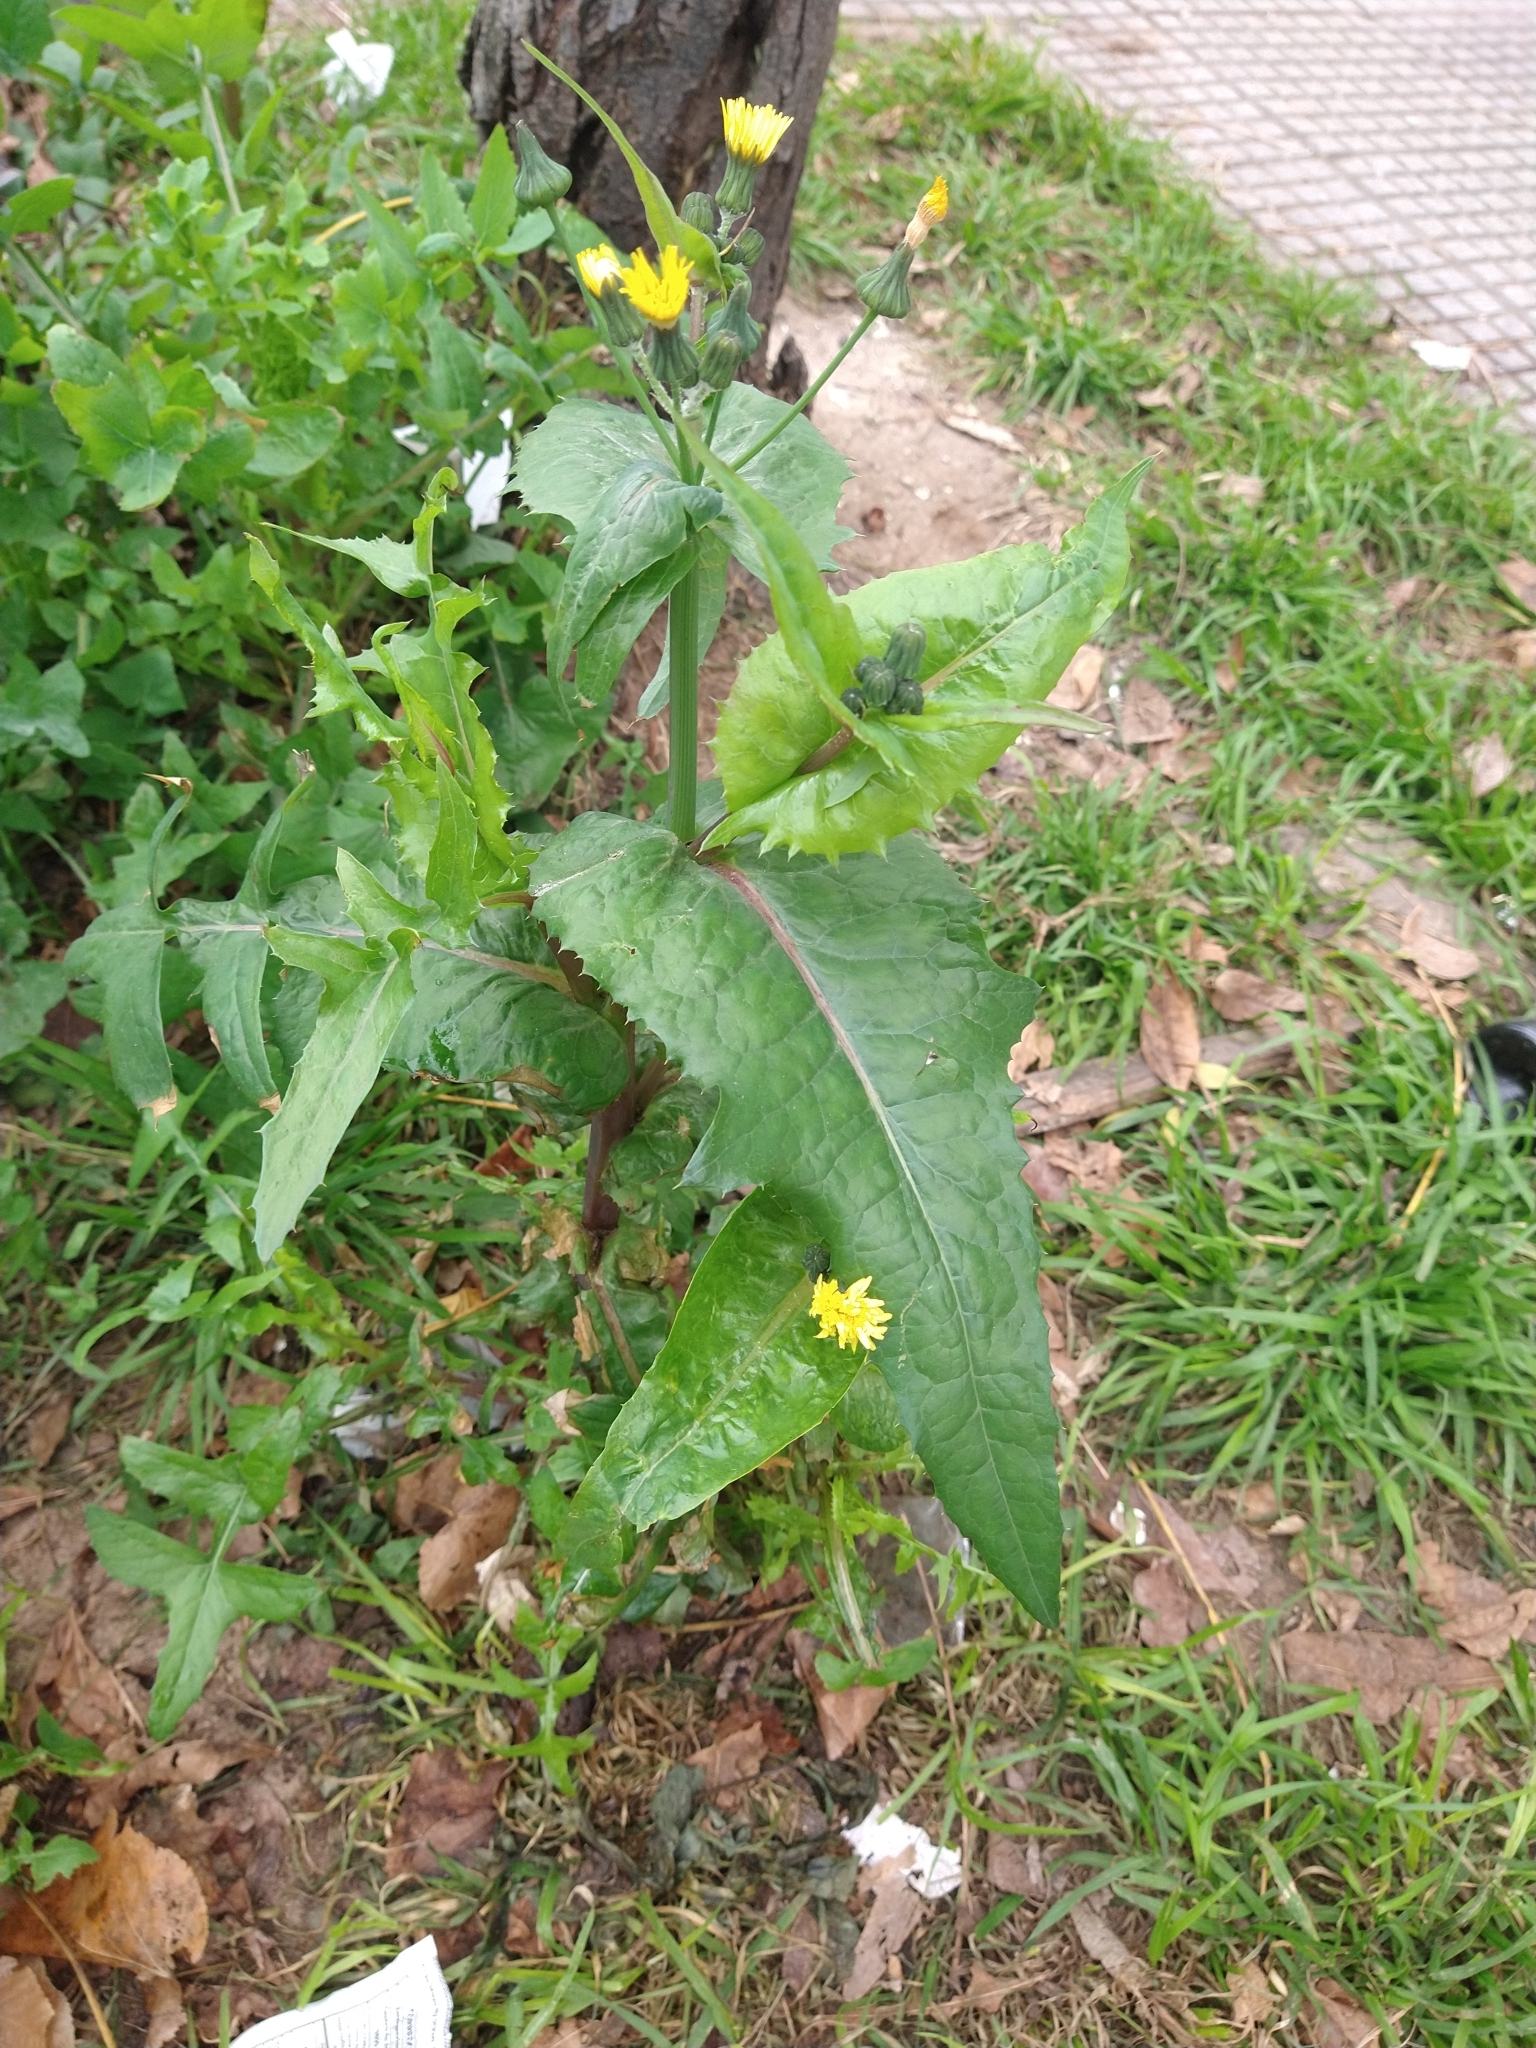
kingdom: Plantae
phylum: Tracheophyta
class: Magnoliopsida
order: Asterales
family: Asteraceae
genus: Sonchus
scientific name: Sonchus oleraceus
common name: Common sowthistle
